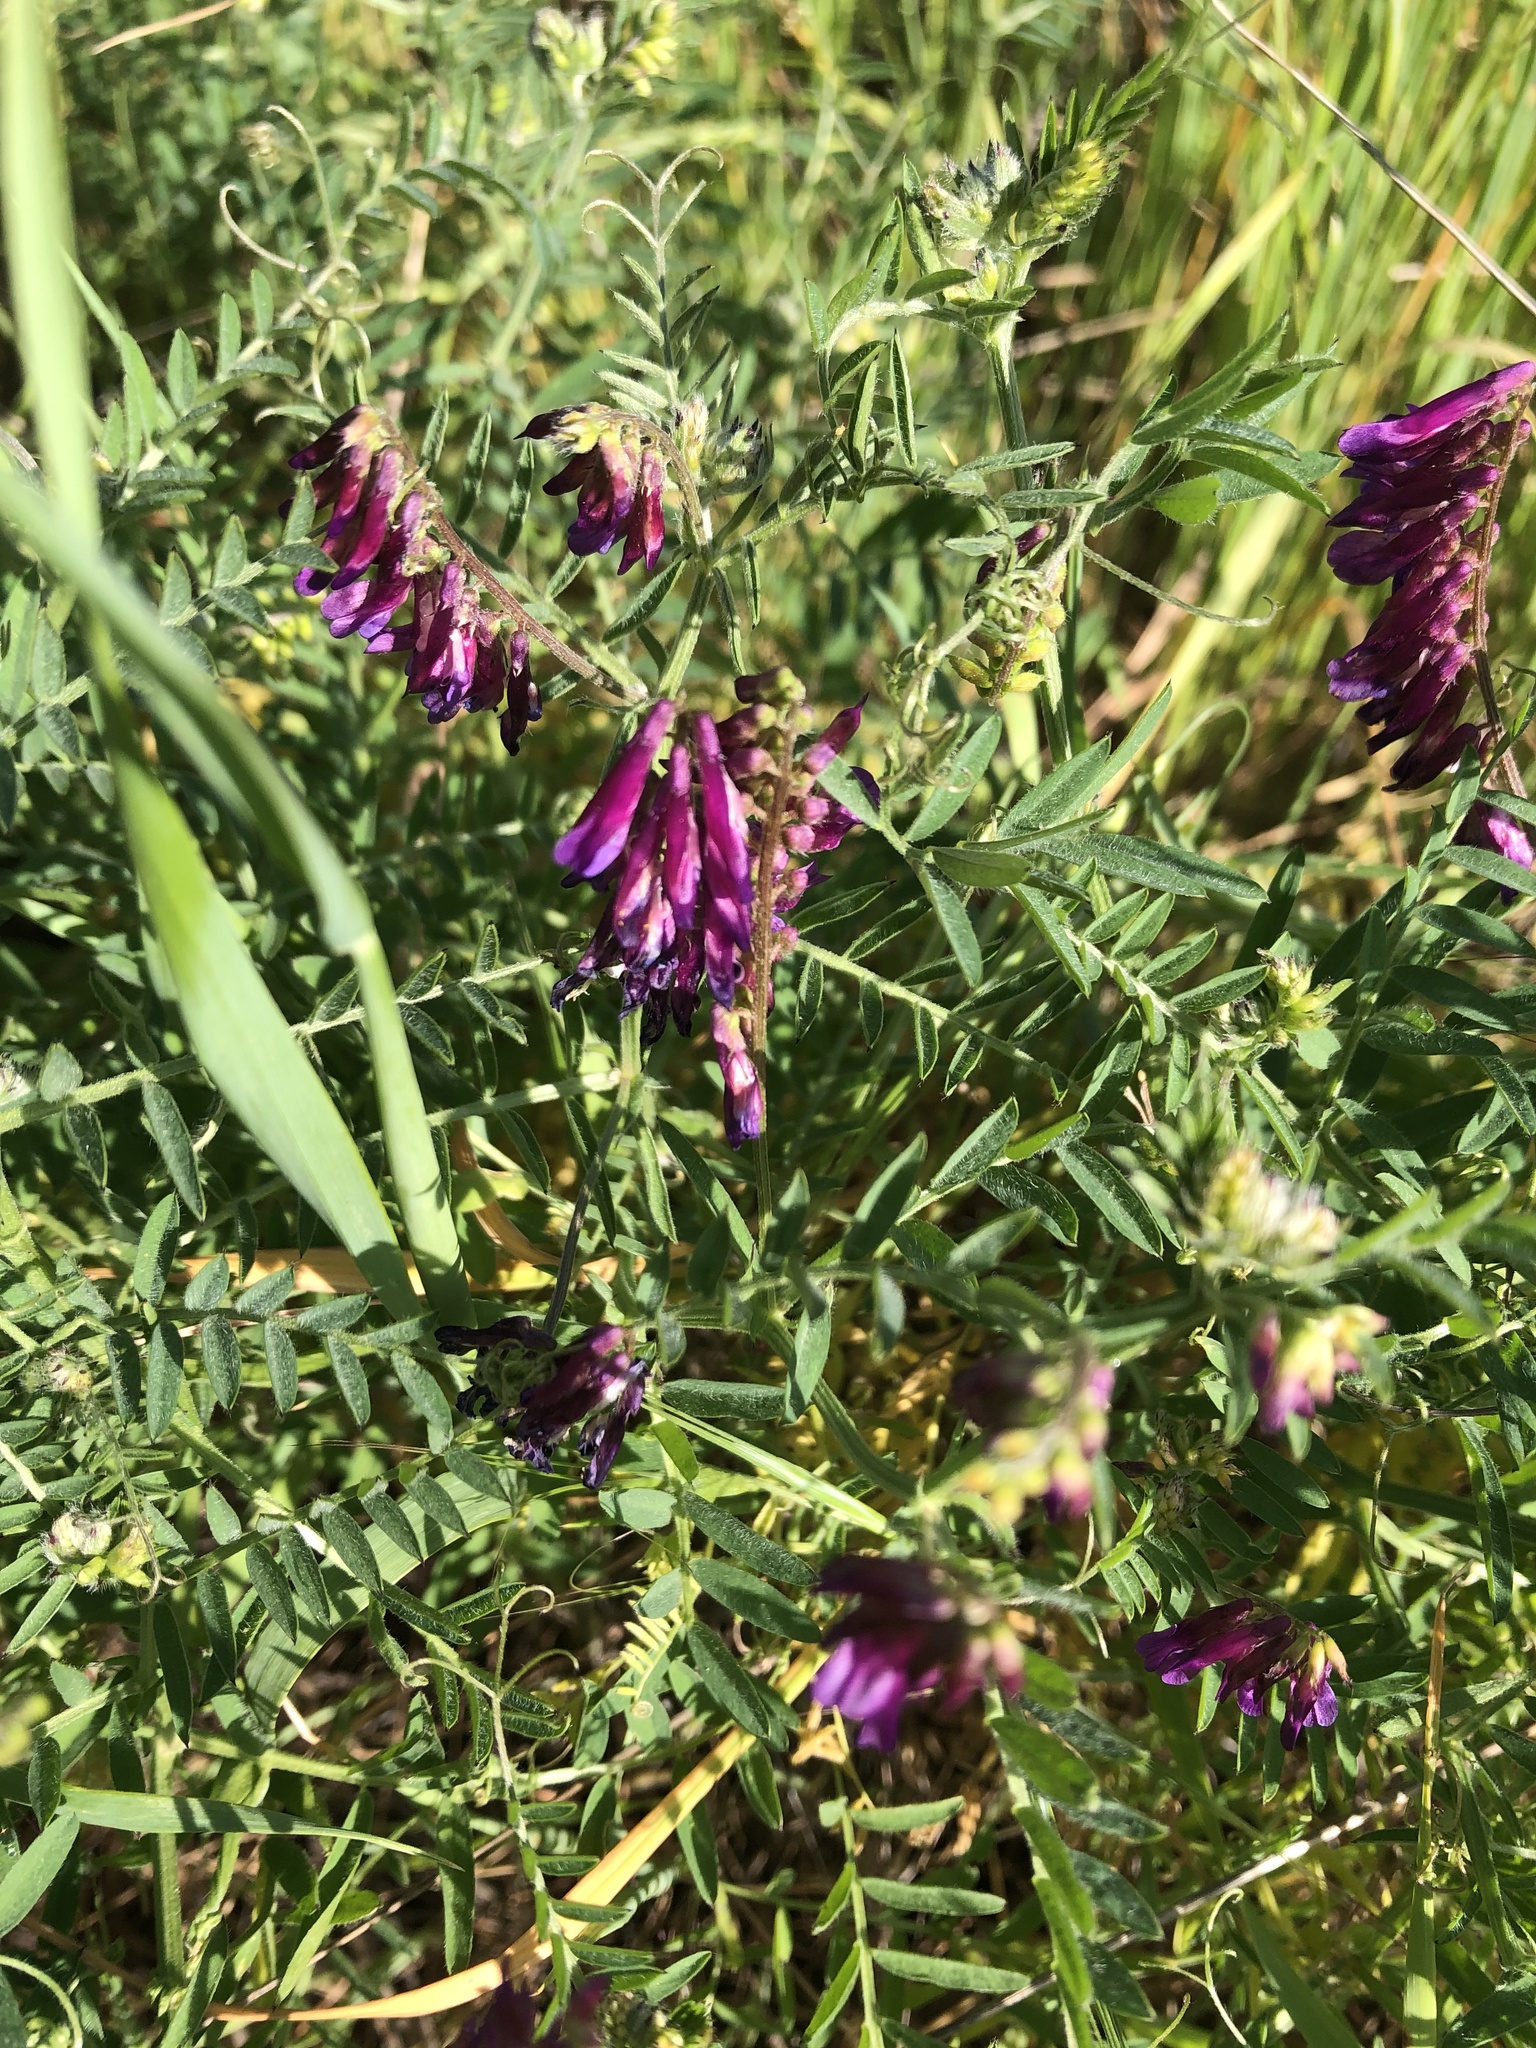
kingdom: Plantae
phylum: Tracheophyta
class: Magnoliopsida
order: Fabales
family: Fabaceae
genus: Vicia
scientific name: Vicia villosa
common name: Fodder vetch
